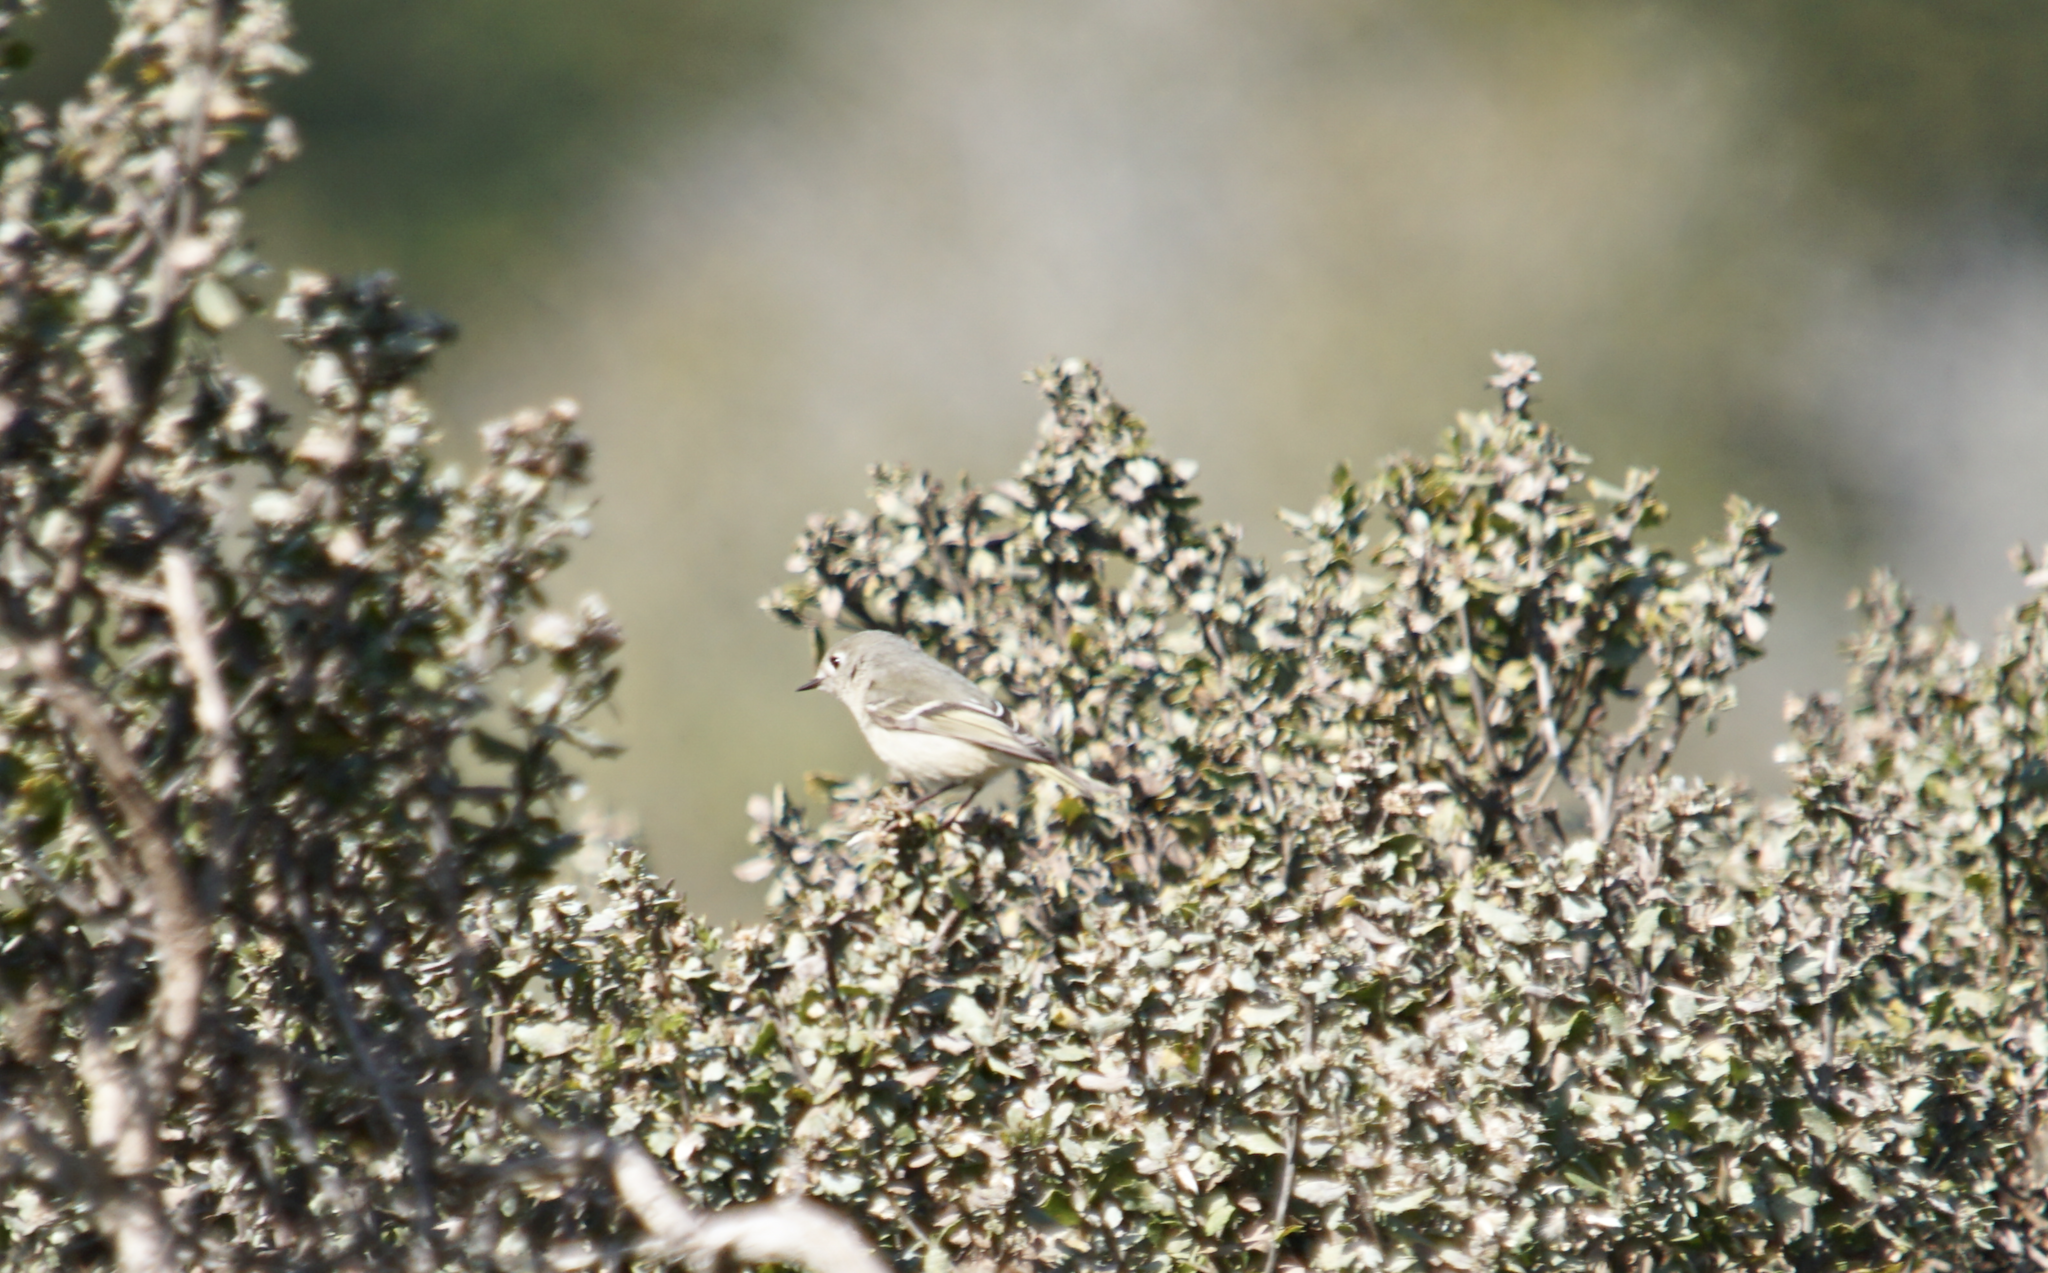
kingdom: Animalia
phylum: Chordata
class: Aves
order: Passeriformes
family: Regulidae
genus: Regulus
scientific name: Regulus calendula
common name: Ruby-crowned kinglet
